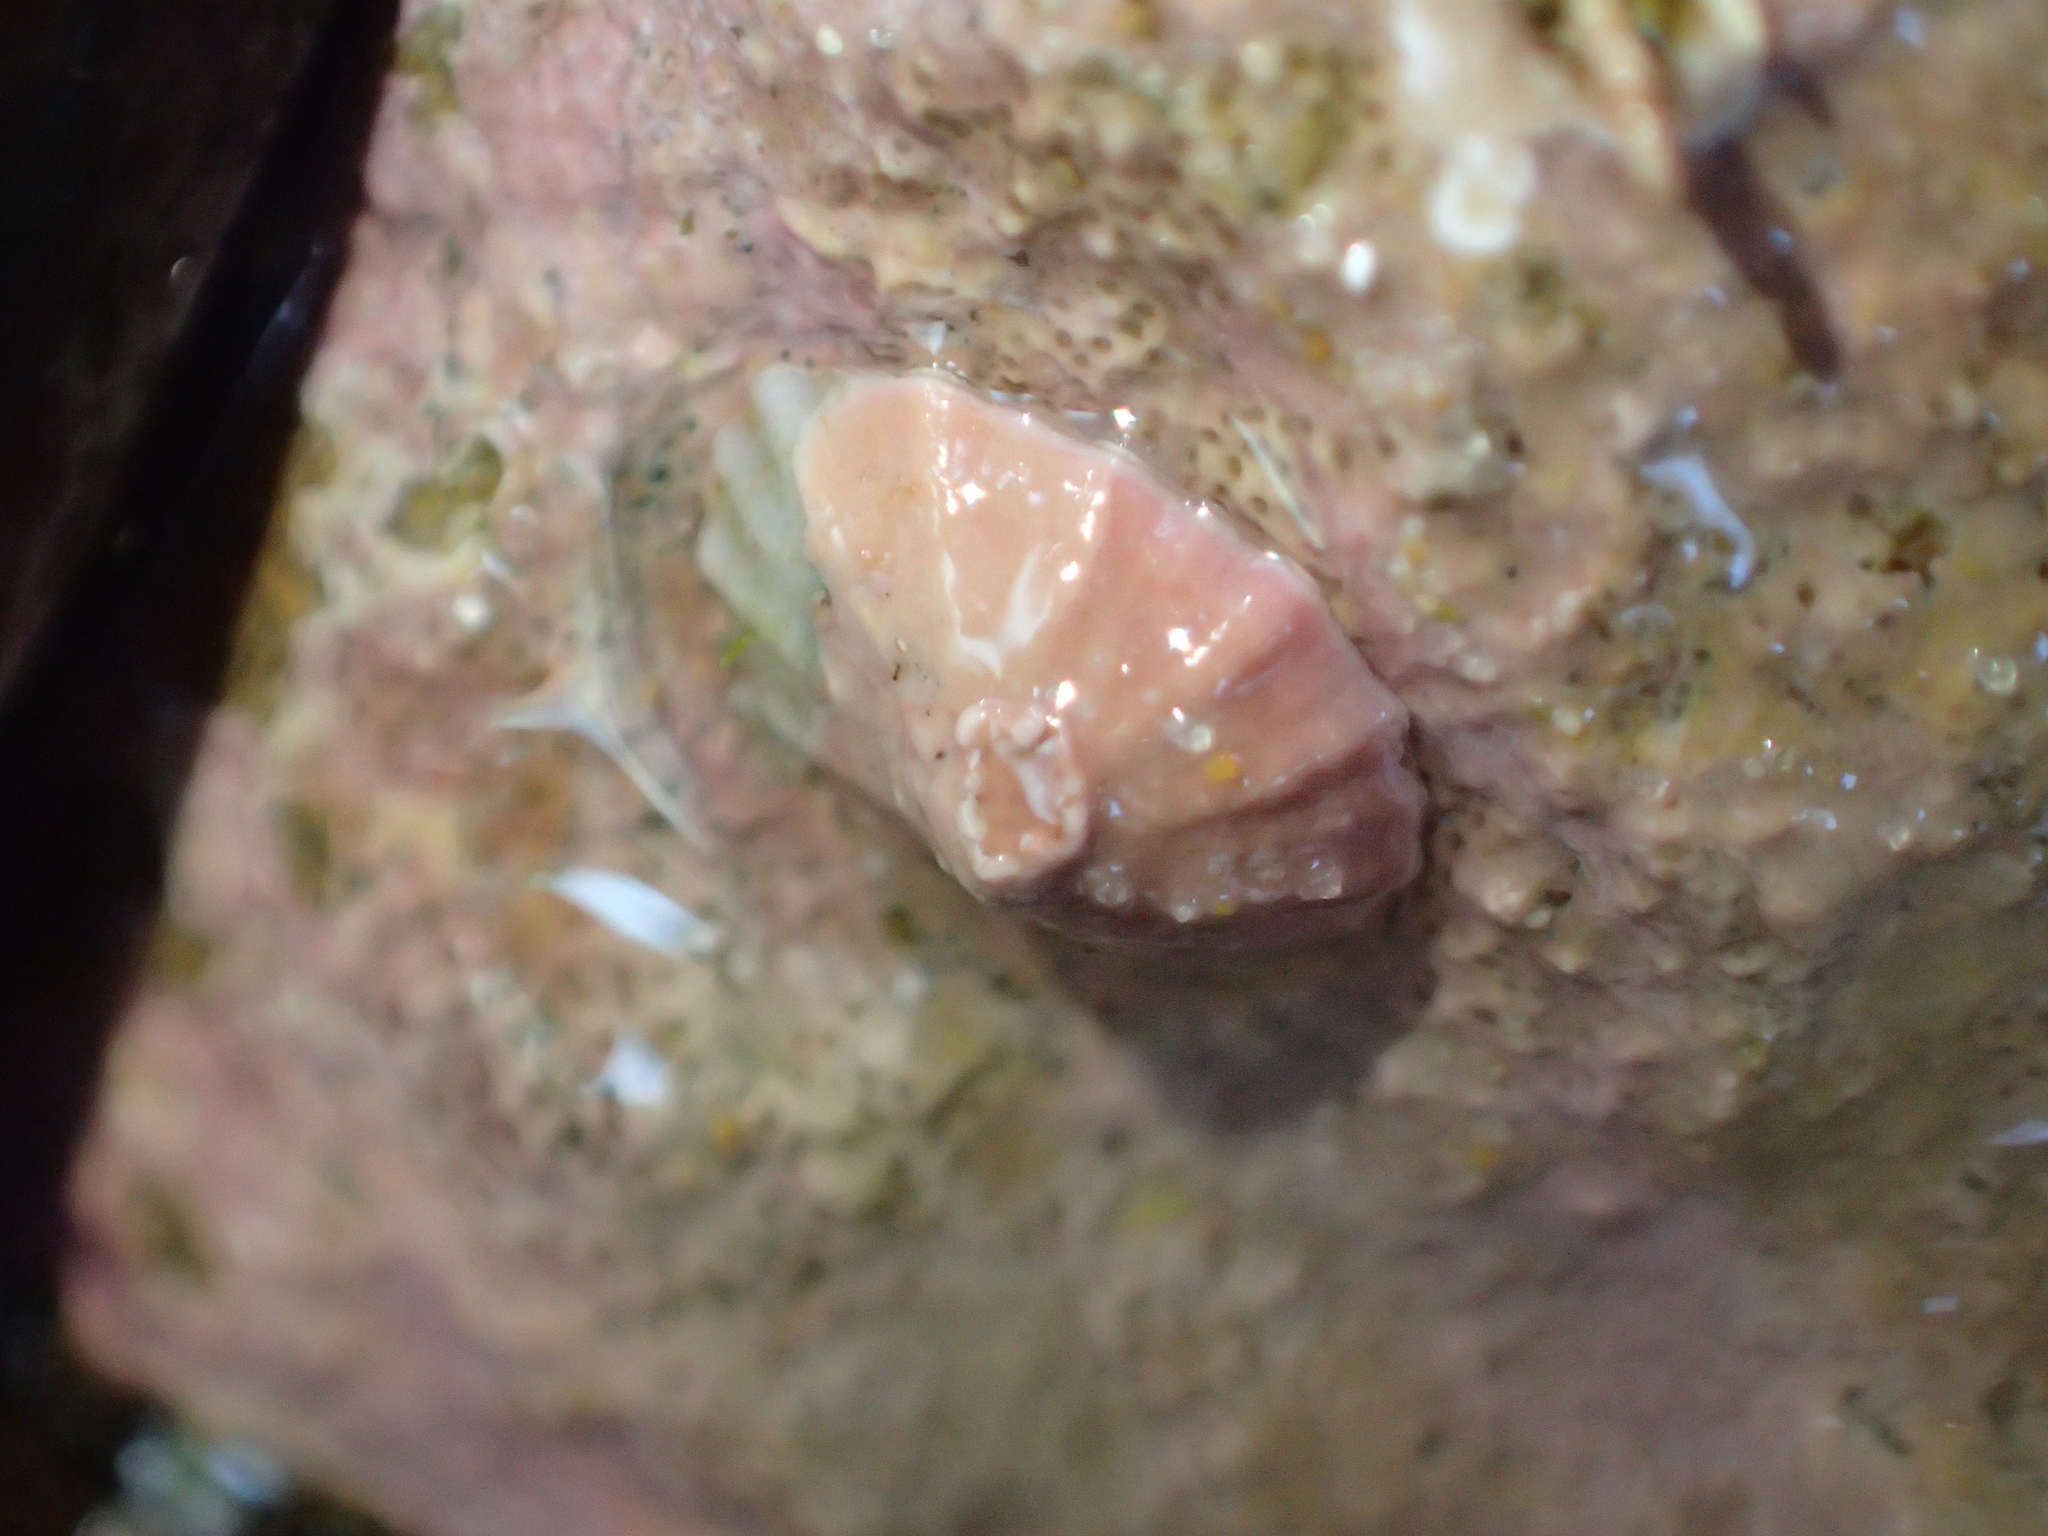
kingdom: Animalia
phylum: Mollusca
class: Gastropoda
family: Lottiidae
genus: Radiacmea
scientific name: Radiacmea inconspicua
